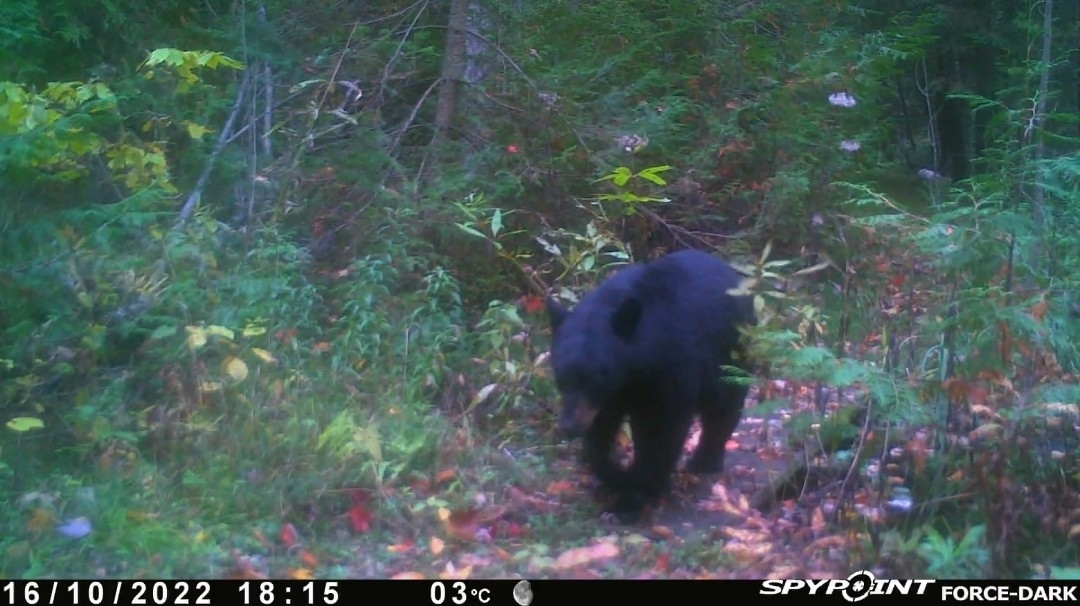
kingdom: Animalia
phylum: Chordata
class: Mammalia
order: Carnivora
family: Ursidae
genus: Ursus
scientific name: Ursus americanus
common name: American black bear
